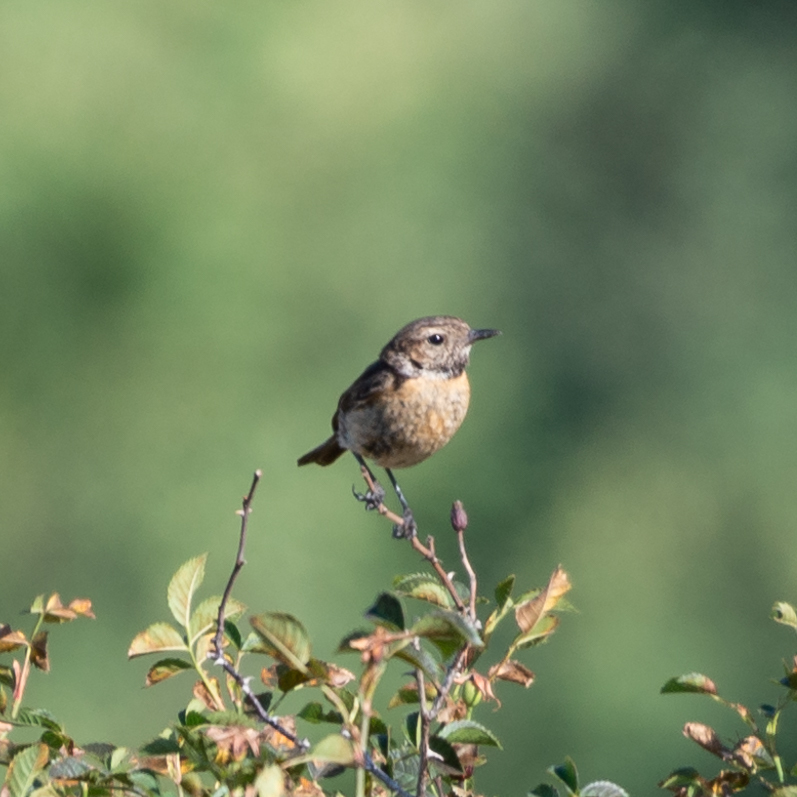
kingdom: Animalia
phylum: Chordata
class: Aves
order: Passeriformes
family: Muscicapidae
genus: Saxicola
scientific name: Saxicola rubicola
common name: European stonechat
